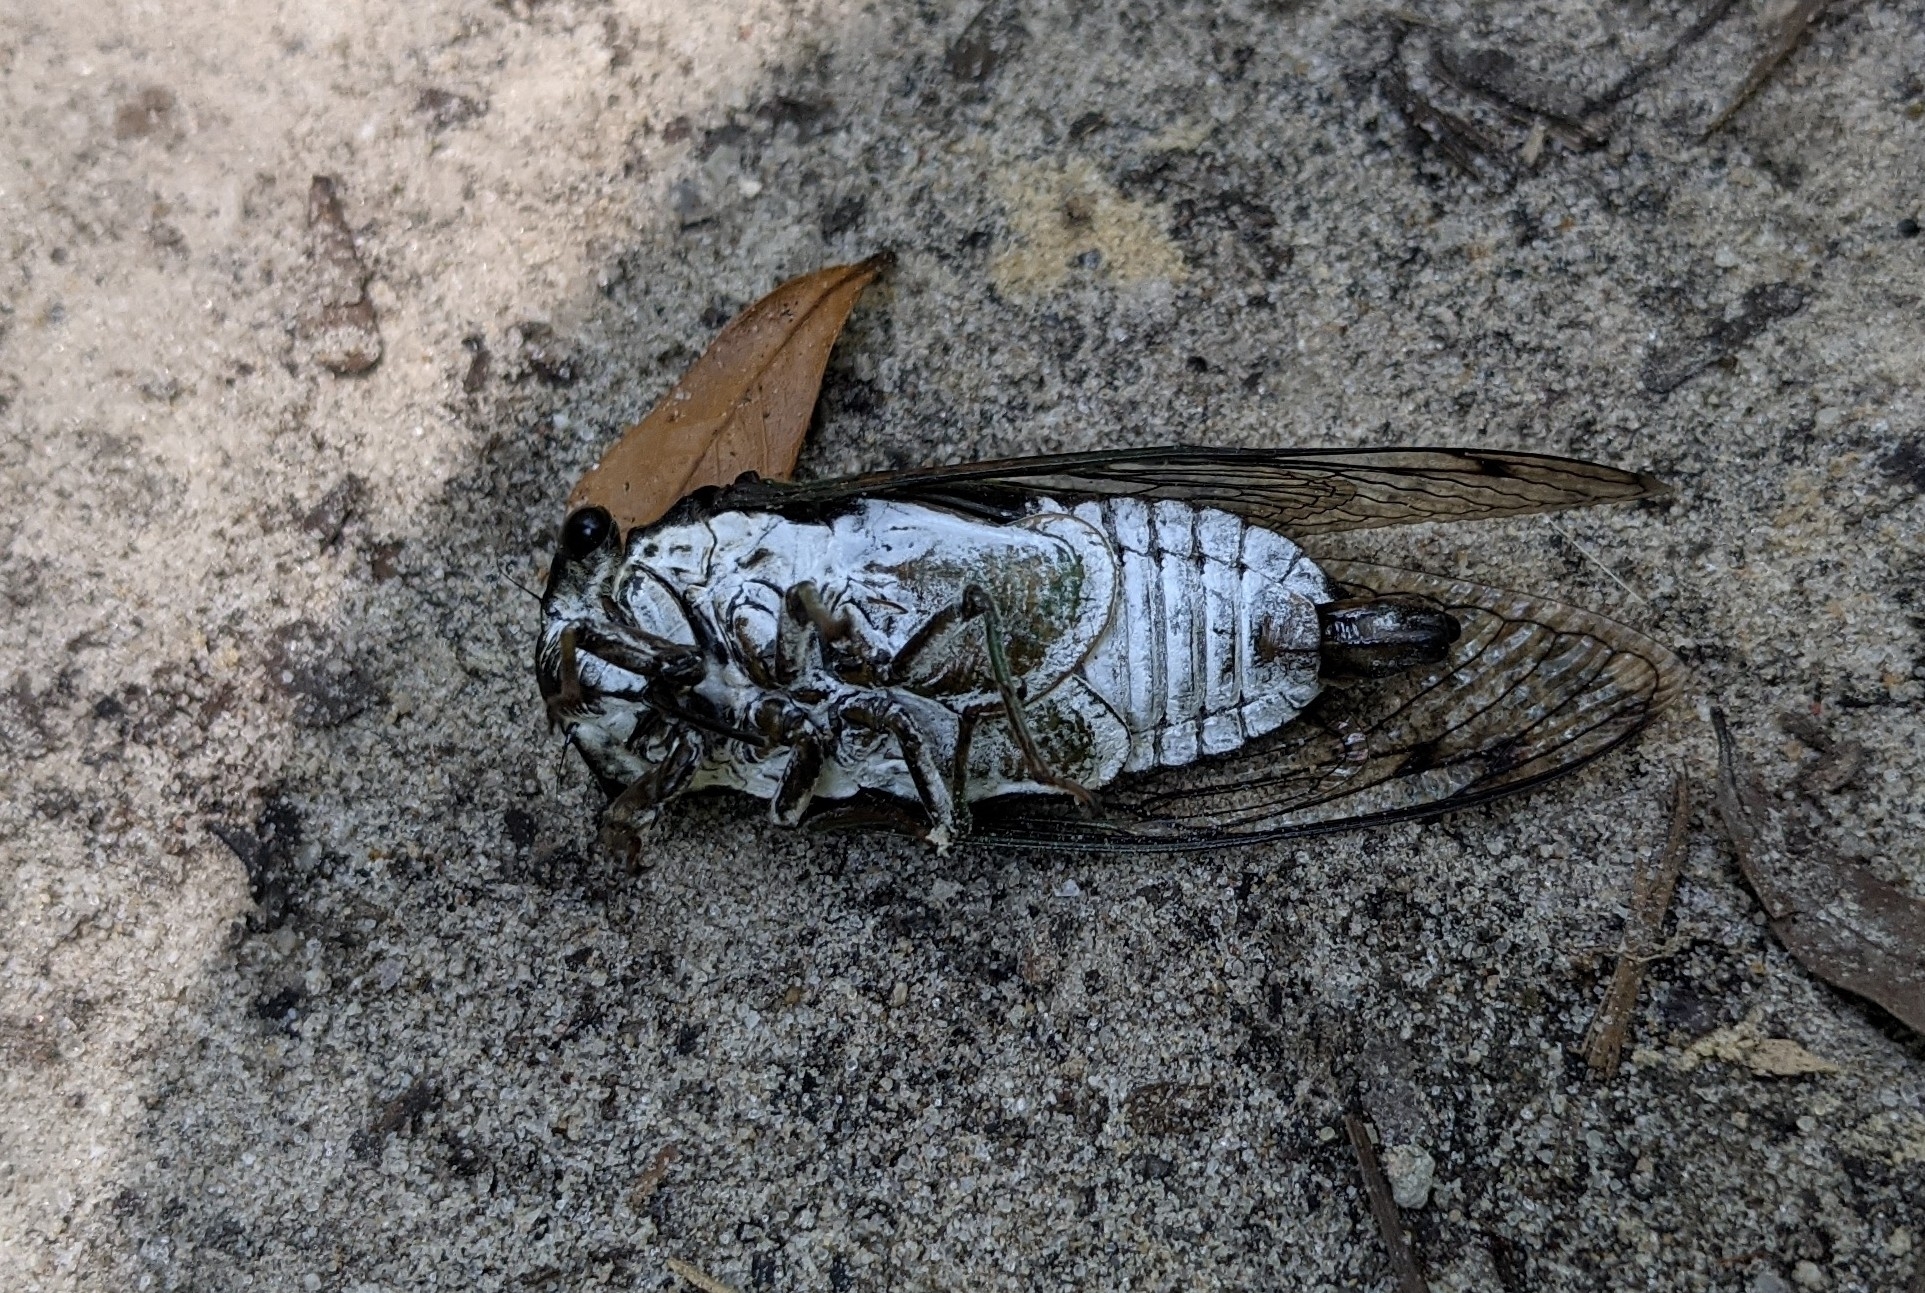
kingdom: Animalia
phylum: Arthropoda
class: Insecta
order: Hemiptera
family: Cicadidae
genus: Neotibicen
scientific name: Neotibicen tibicen
